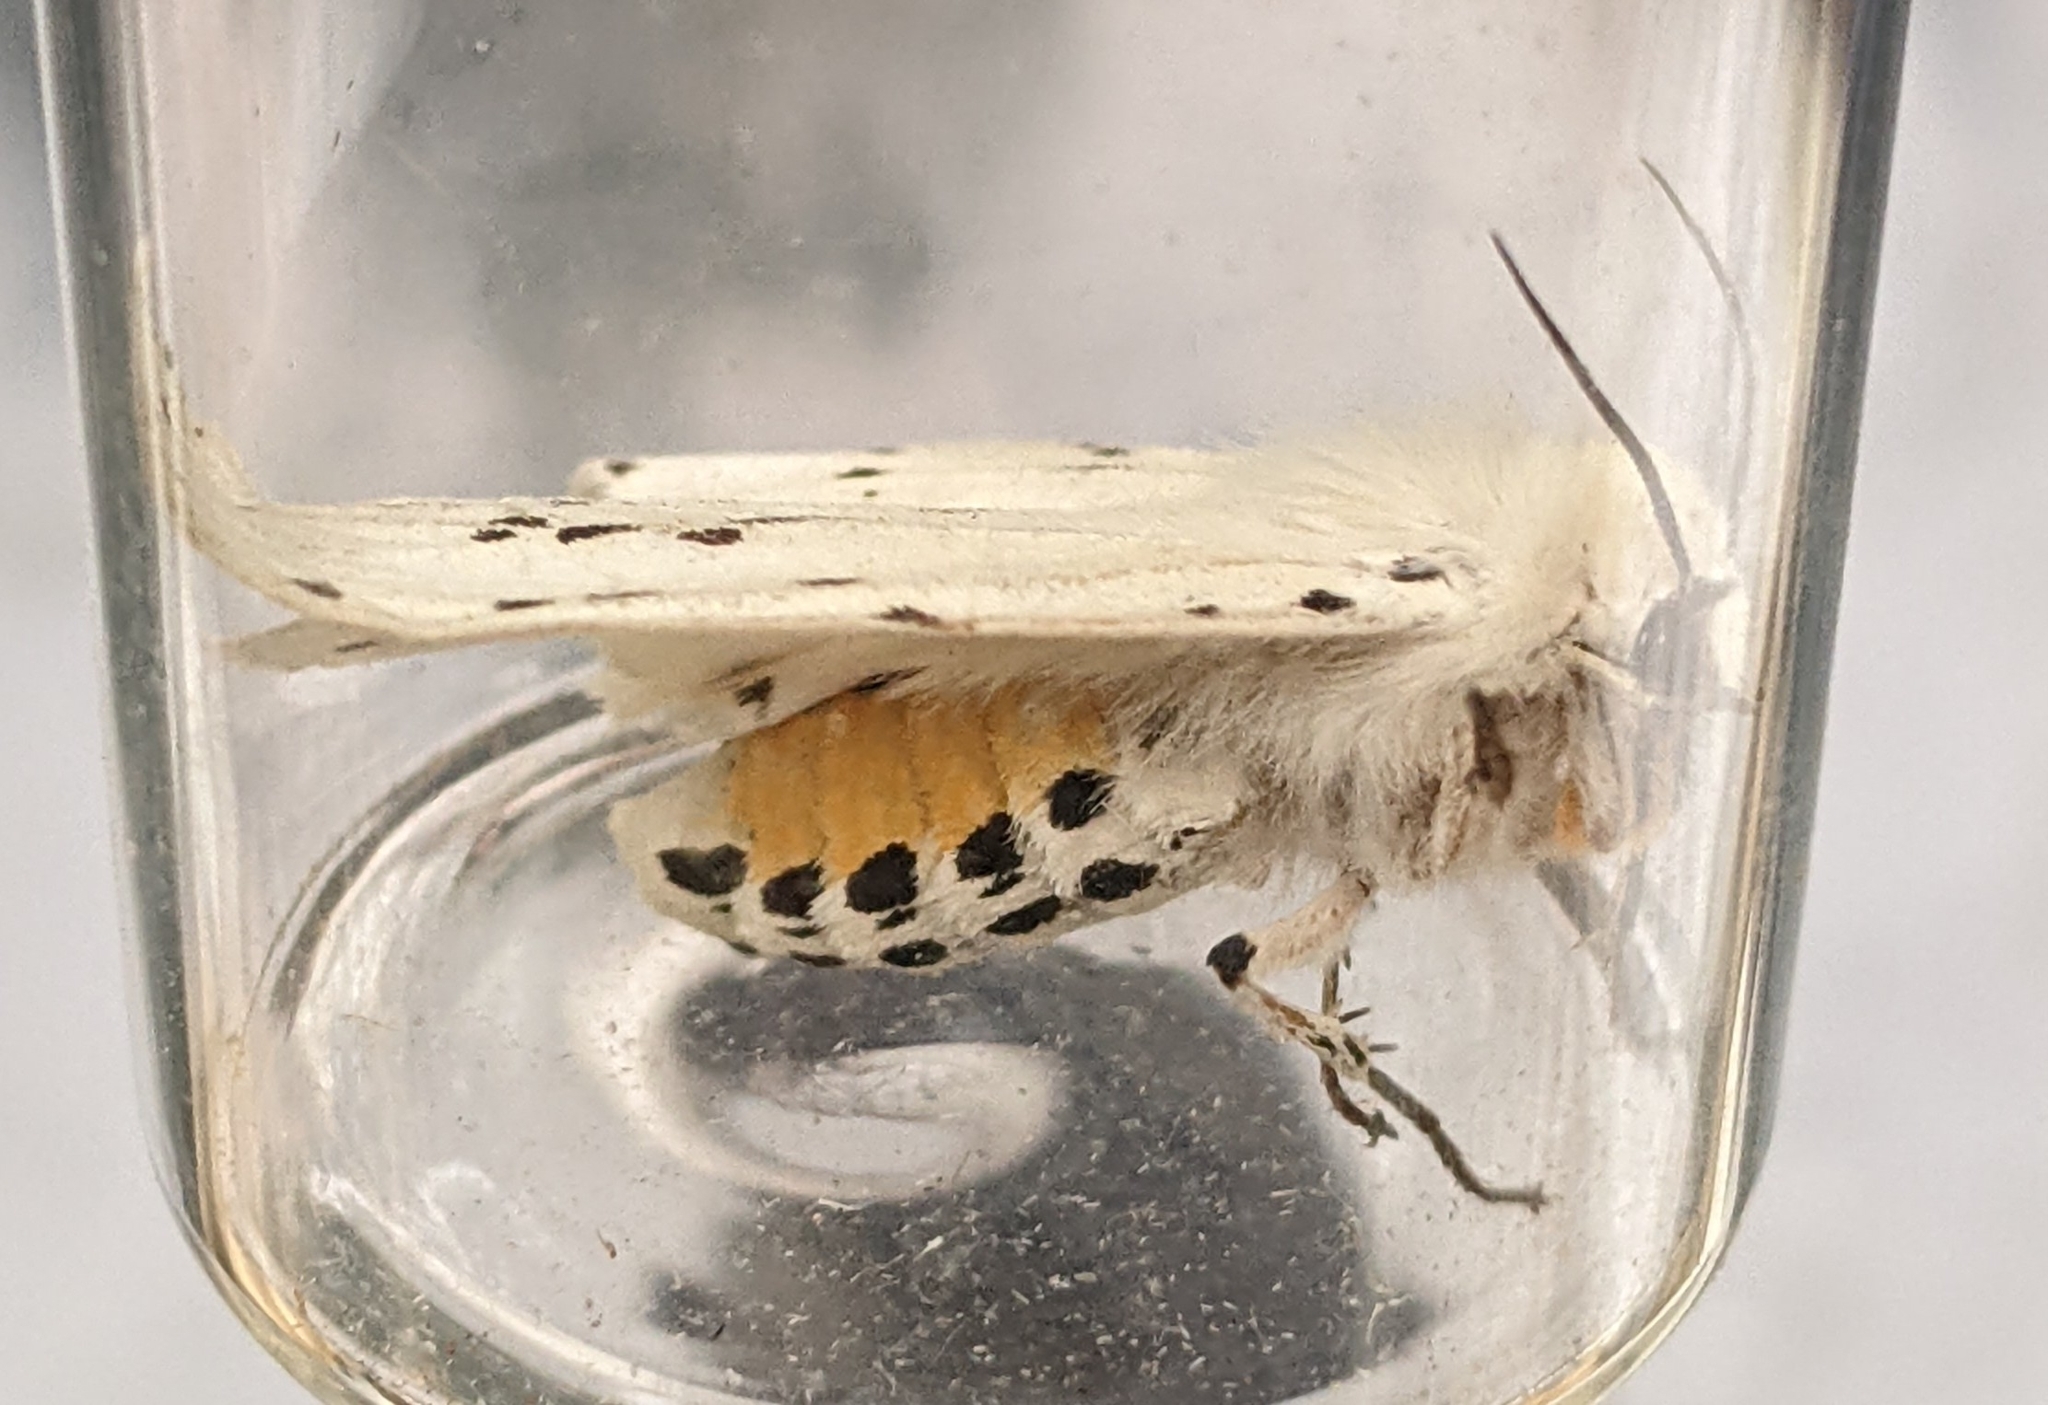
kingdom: Animalia
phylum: Arthropoda
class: Insecta
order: Lepidoptera
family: Erebidae
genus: Spilosoma
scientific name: Spilosoma lubricipeda
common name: White ermine
